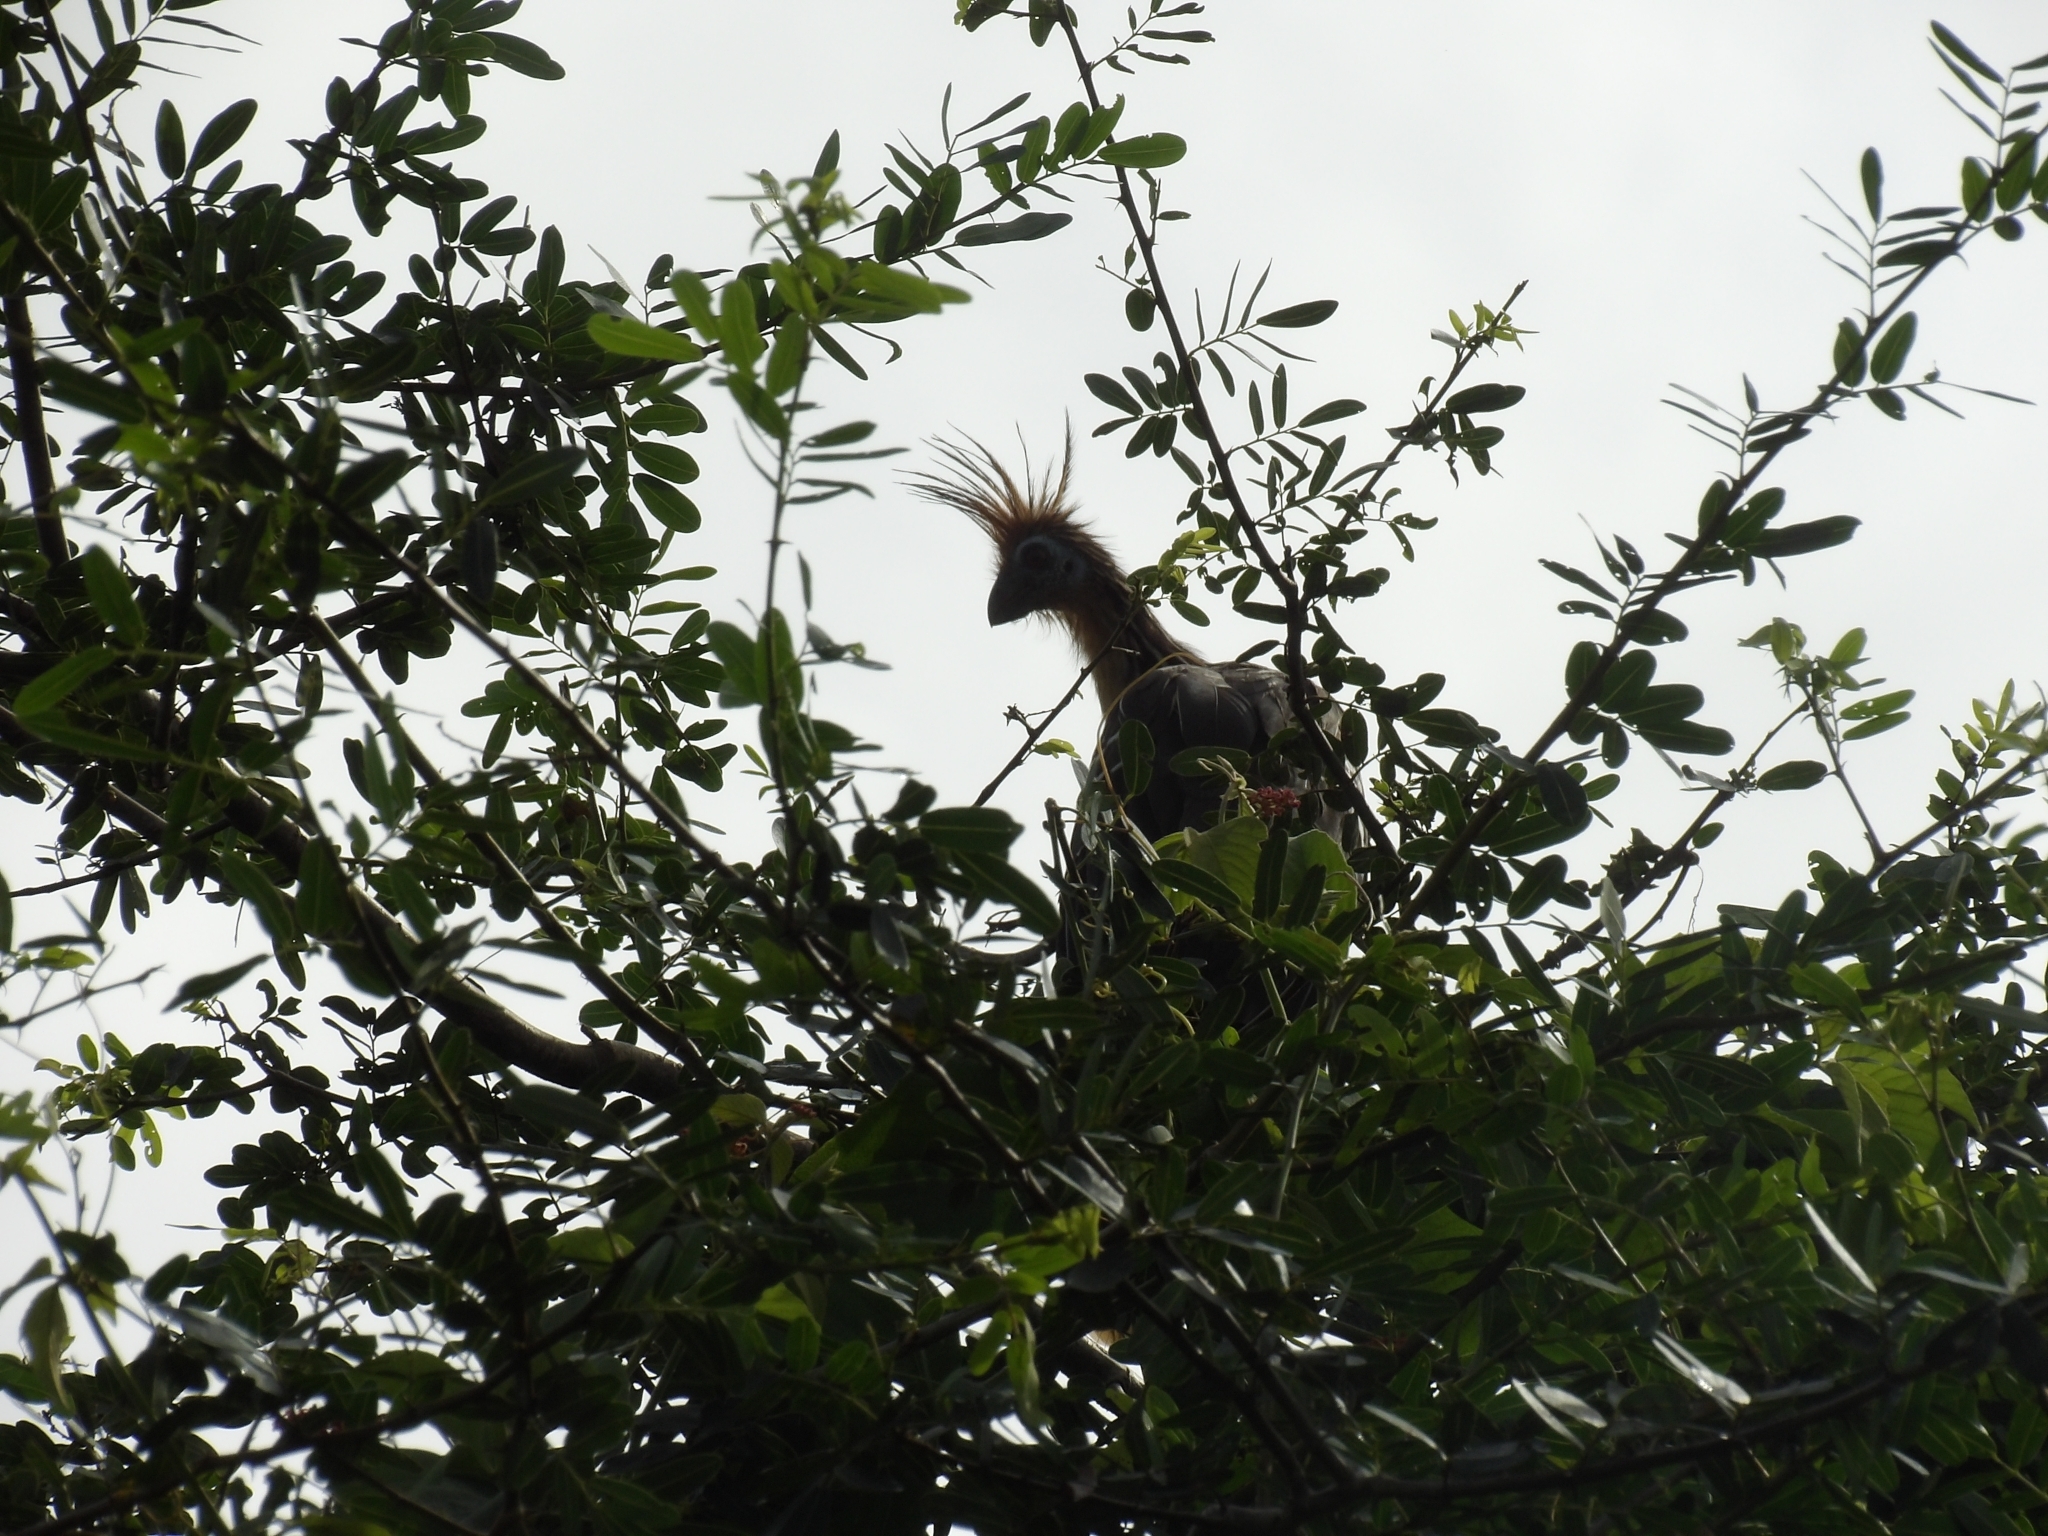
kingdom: Animalia
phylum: Chordata
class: Aves
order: Opisthocomiformes
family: Opisthocomidae
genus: Opisthocomus
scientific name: Opisthocomus hoazin
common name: Hoatzin
